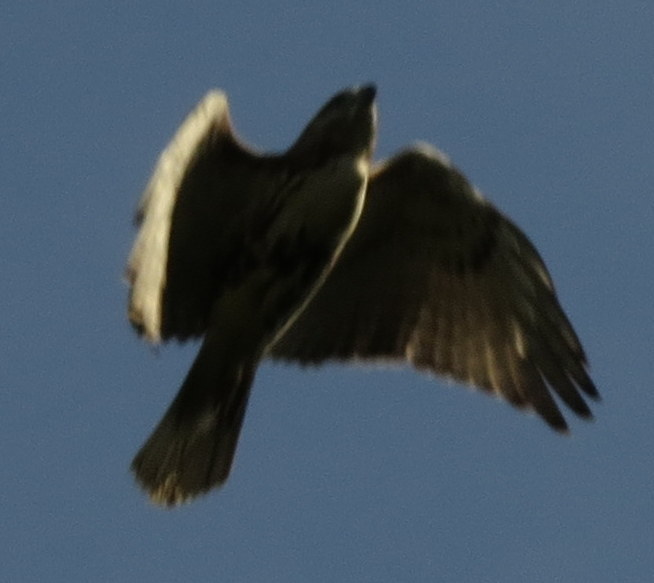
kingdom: Animalia
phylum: Chordata
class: Aves
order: Accipitriformes
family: Accipitridae
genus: Buteo
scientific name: Buteo jamaicensis
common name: Red-tailed hawk
